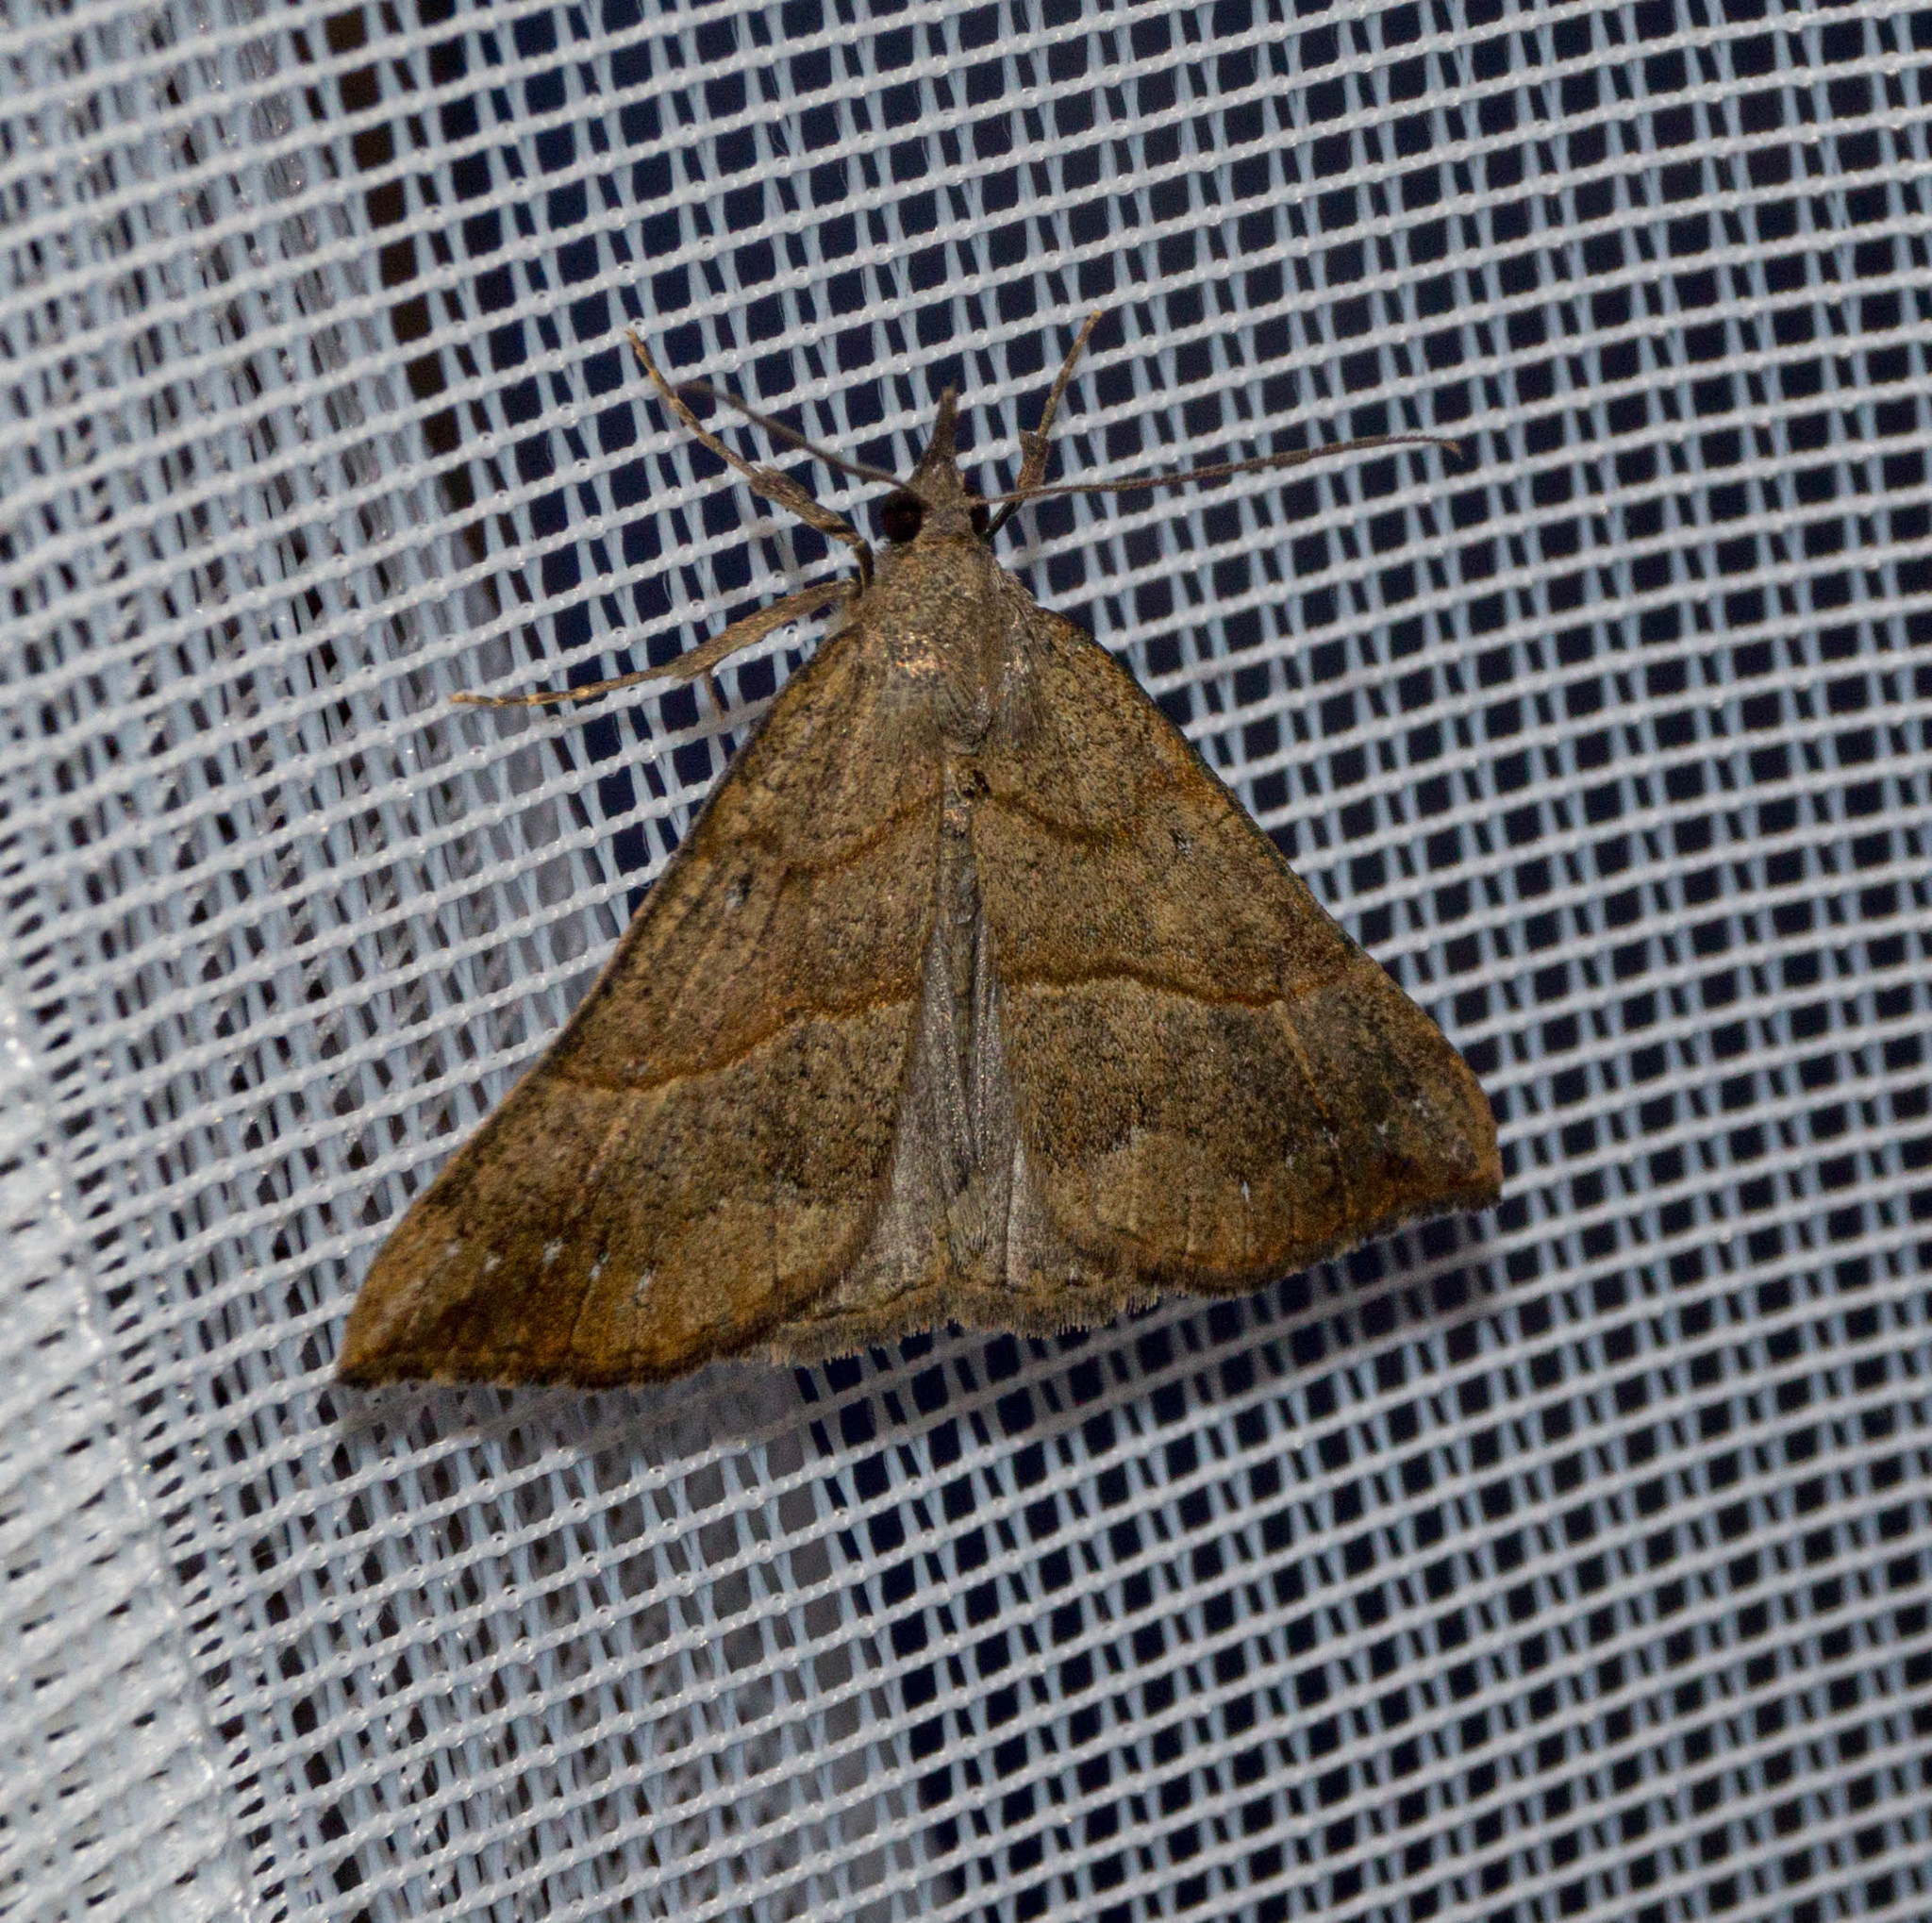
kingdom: Animalia
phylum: Arthropoda
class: Insecta
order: Lepidoptera
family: Erebidae
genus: Hypena
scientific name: Hypena proboscidalis
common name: Snout
